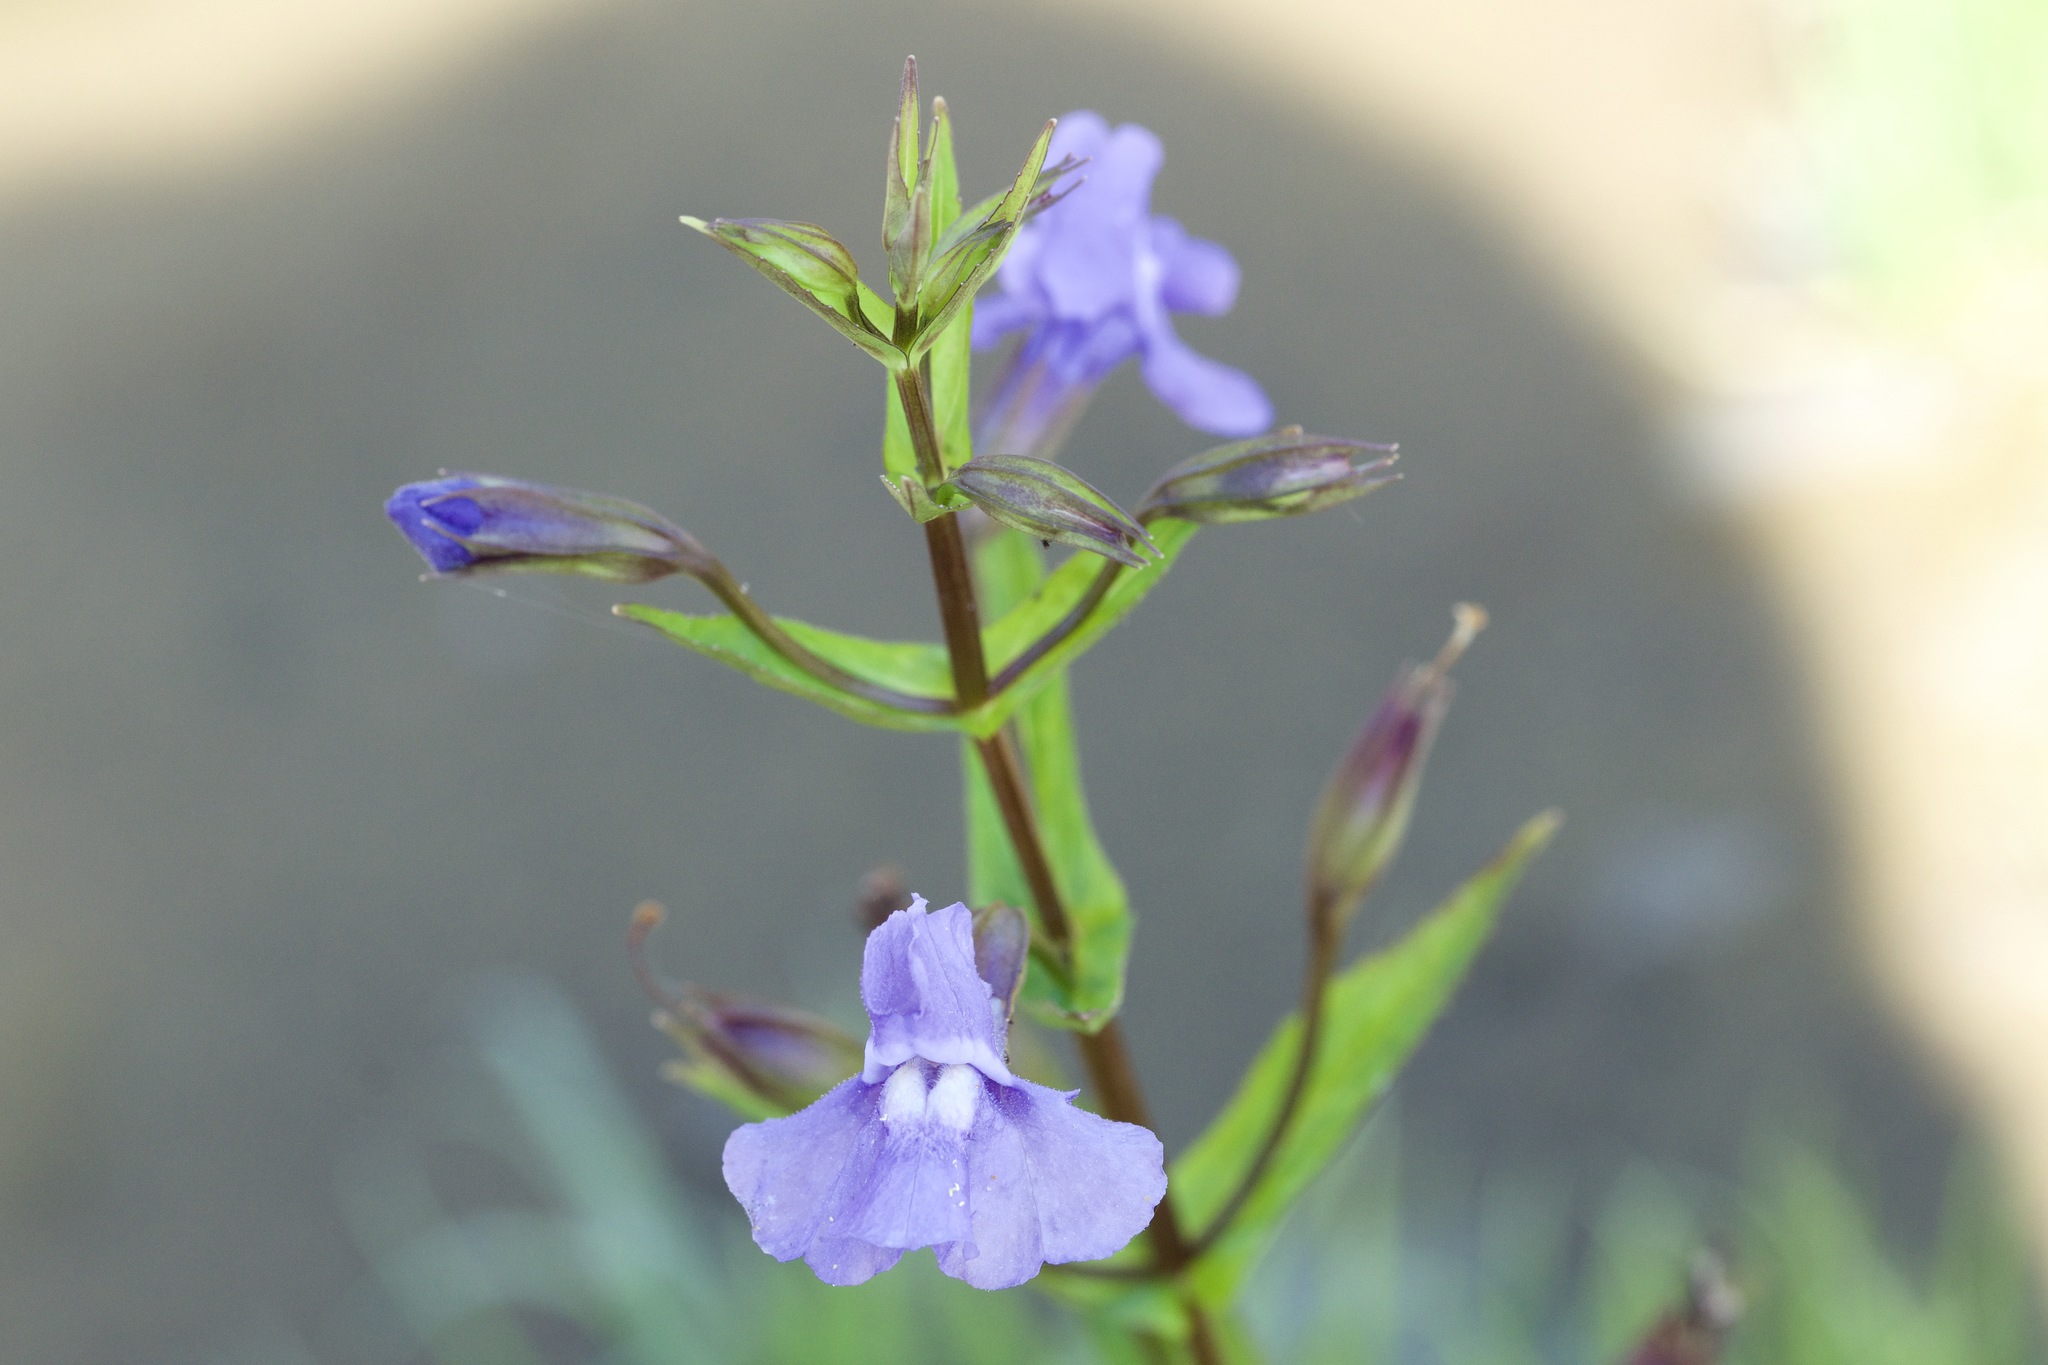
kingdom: Plantae
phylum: Tracheophyta
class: Magnoliopsida
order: Lamiales
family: Phrymaceae
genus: Mimulus
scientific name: Mimulus ringens
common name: Allegheny monkeyflower
